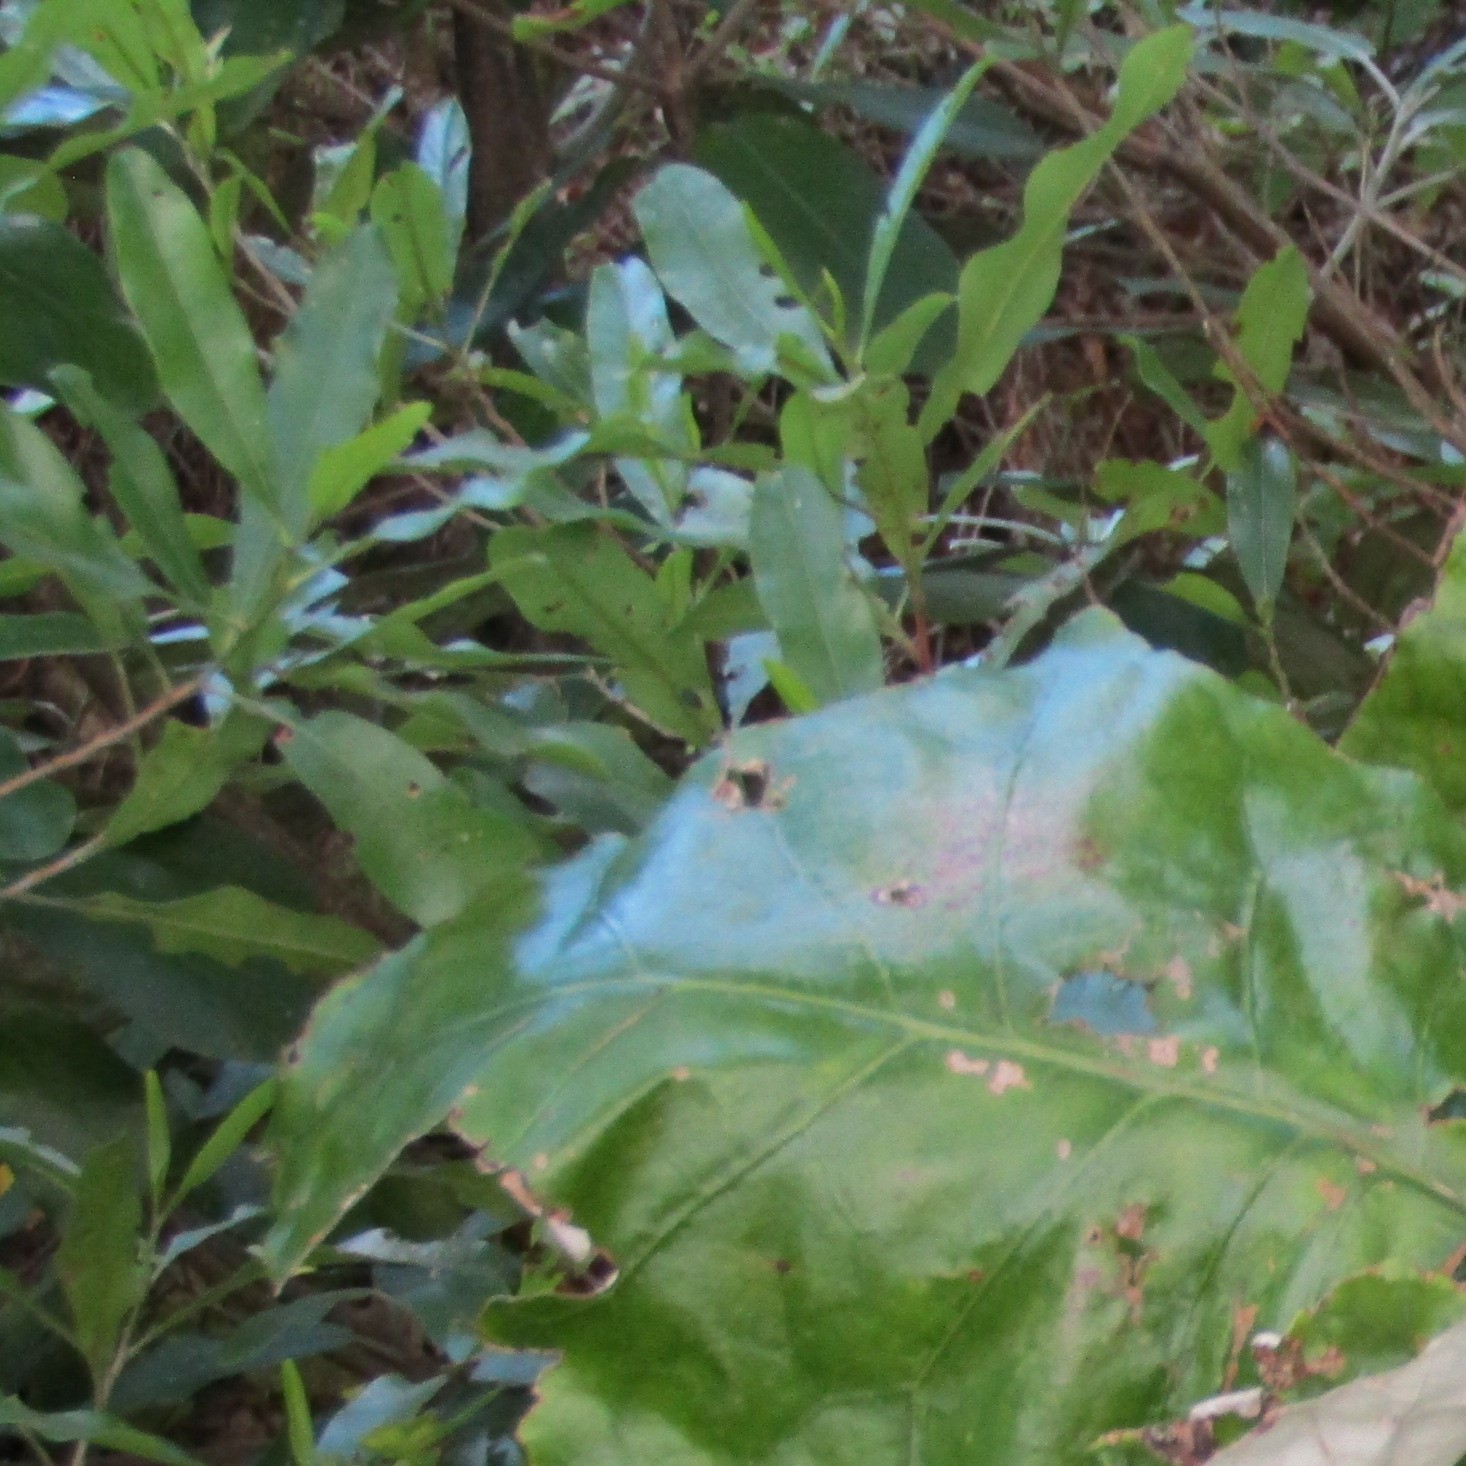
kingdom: Plantae
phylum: Tracheophyta
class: Magnoliopsida
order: Sapindales
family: Sapindaceae
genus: Dodonaea
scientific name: Dodonaea viscosa
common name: Hopbush
